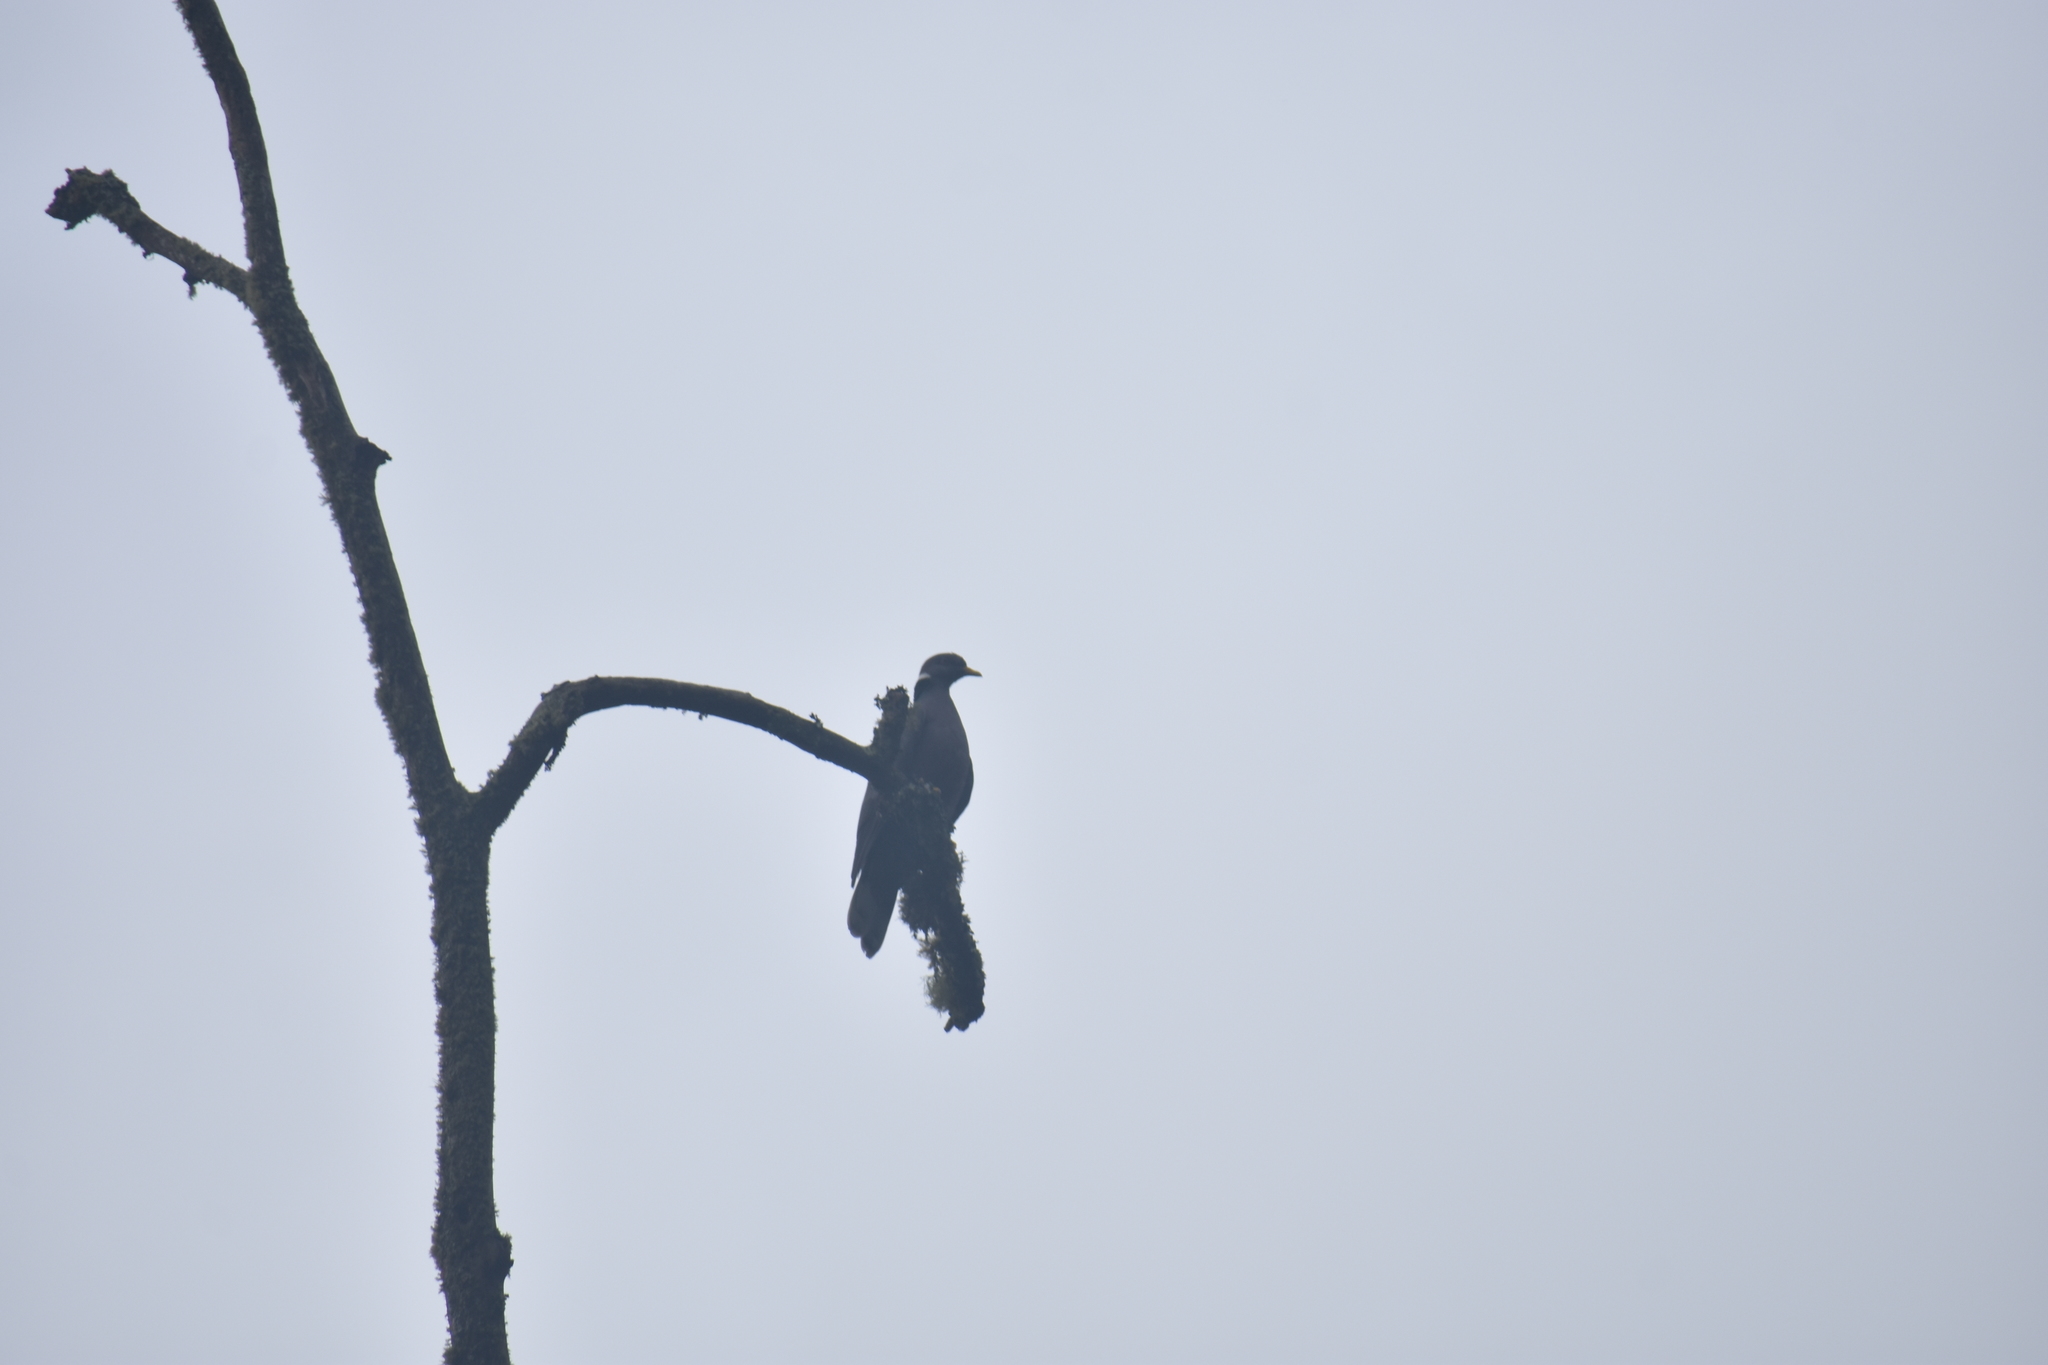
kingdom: Animalia
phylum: Chordata
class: Aves
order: Columbiformes
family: Columbidae
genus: Patagioenas
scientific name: Patagioenas fasciata
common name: Band-tailed pigeon
